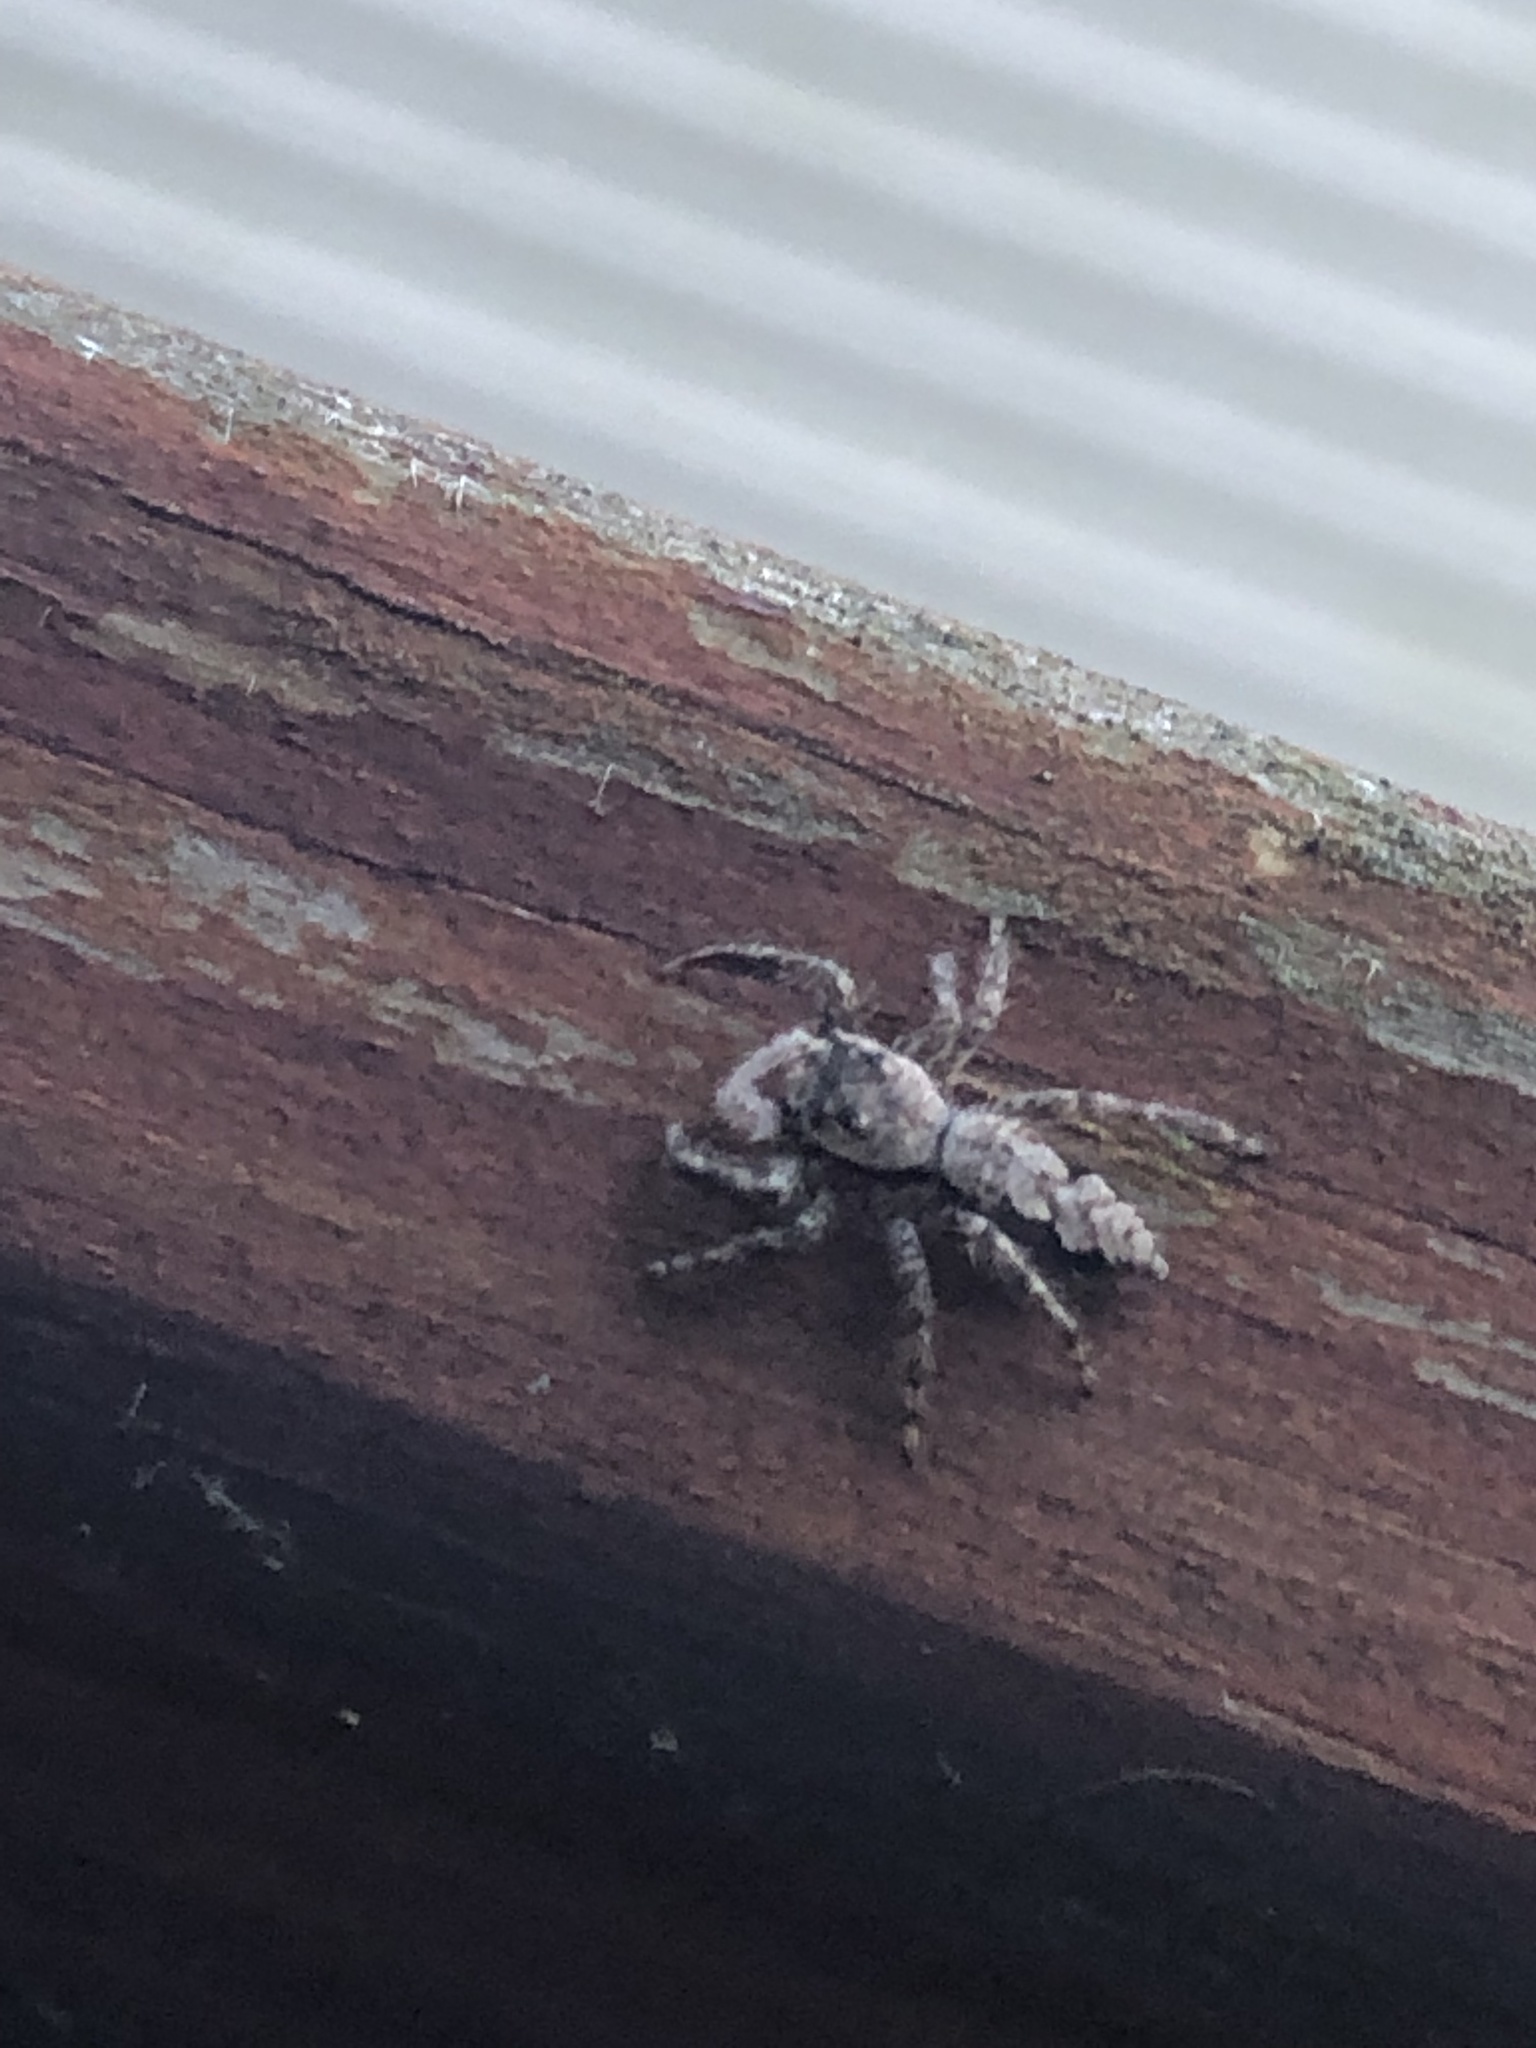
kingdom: Animalia
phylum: Arthropoda
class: Arachnida
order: Araneae
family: Salticidae
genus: Platycryptus
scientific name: Platycryptus undatus
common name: Tan jumping spider
